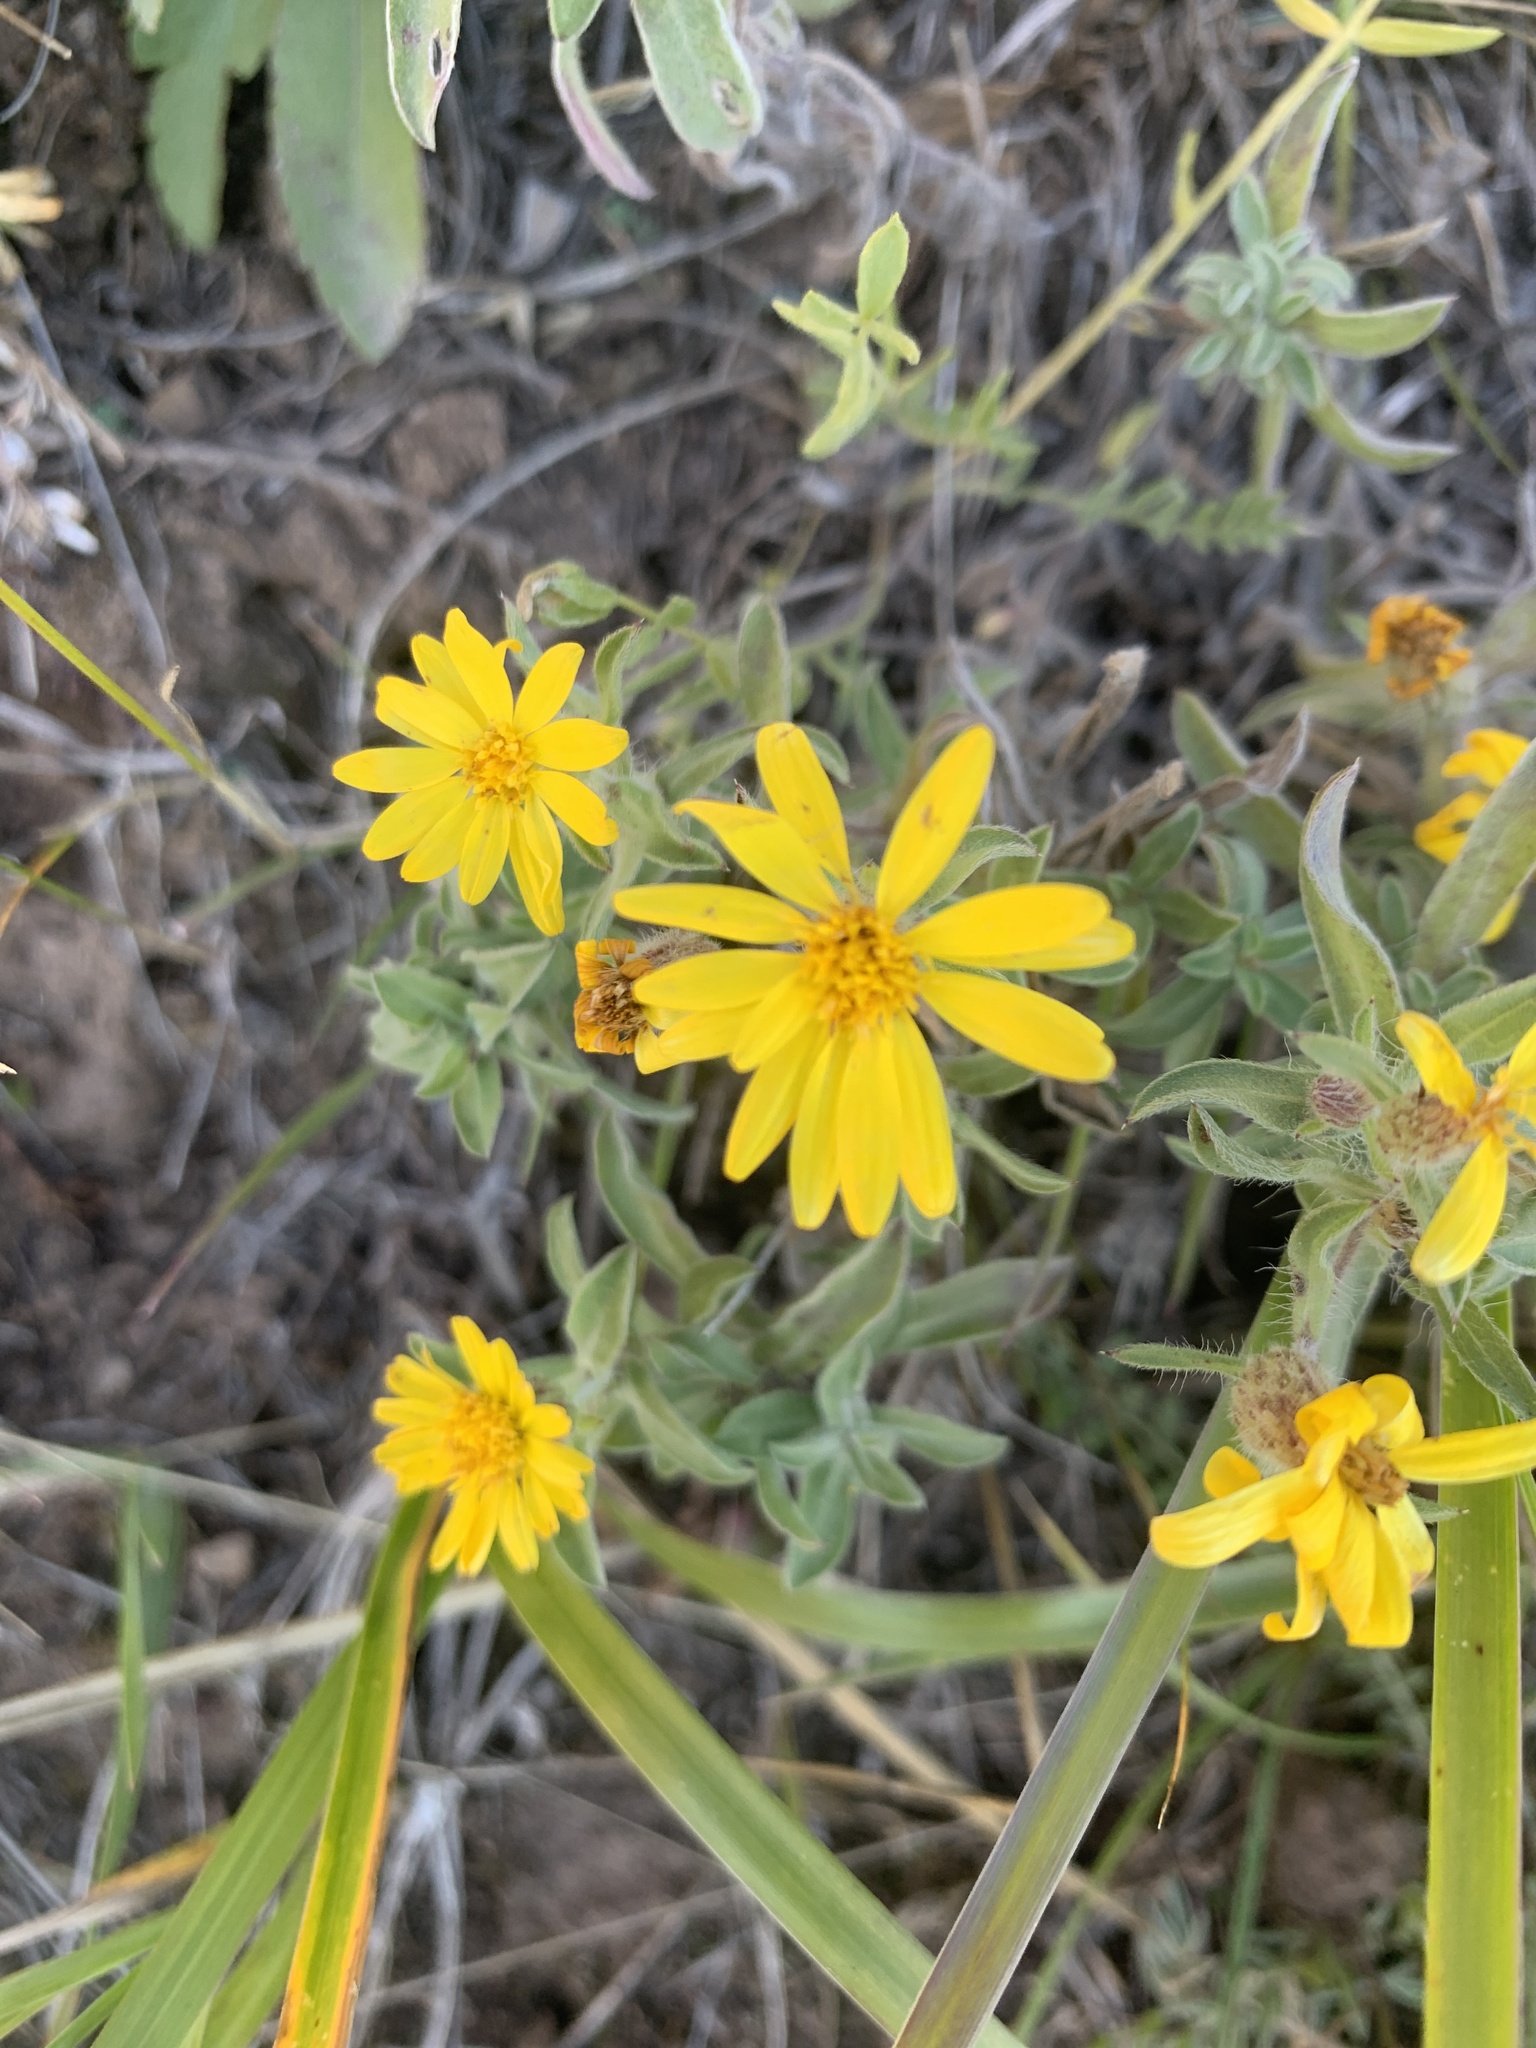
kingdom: Plantae
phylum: Tracheophyta
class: Magnoliopsida
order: Asterales
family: Asteraceae
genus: Heterotheca
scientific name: Heterotheca villosa
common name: Hairy false goldenaster
